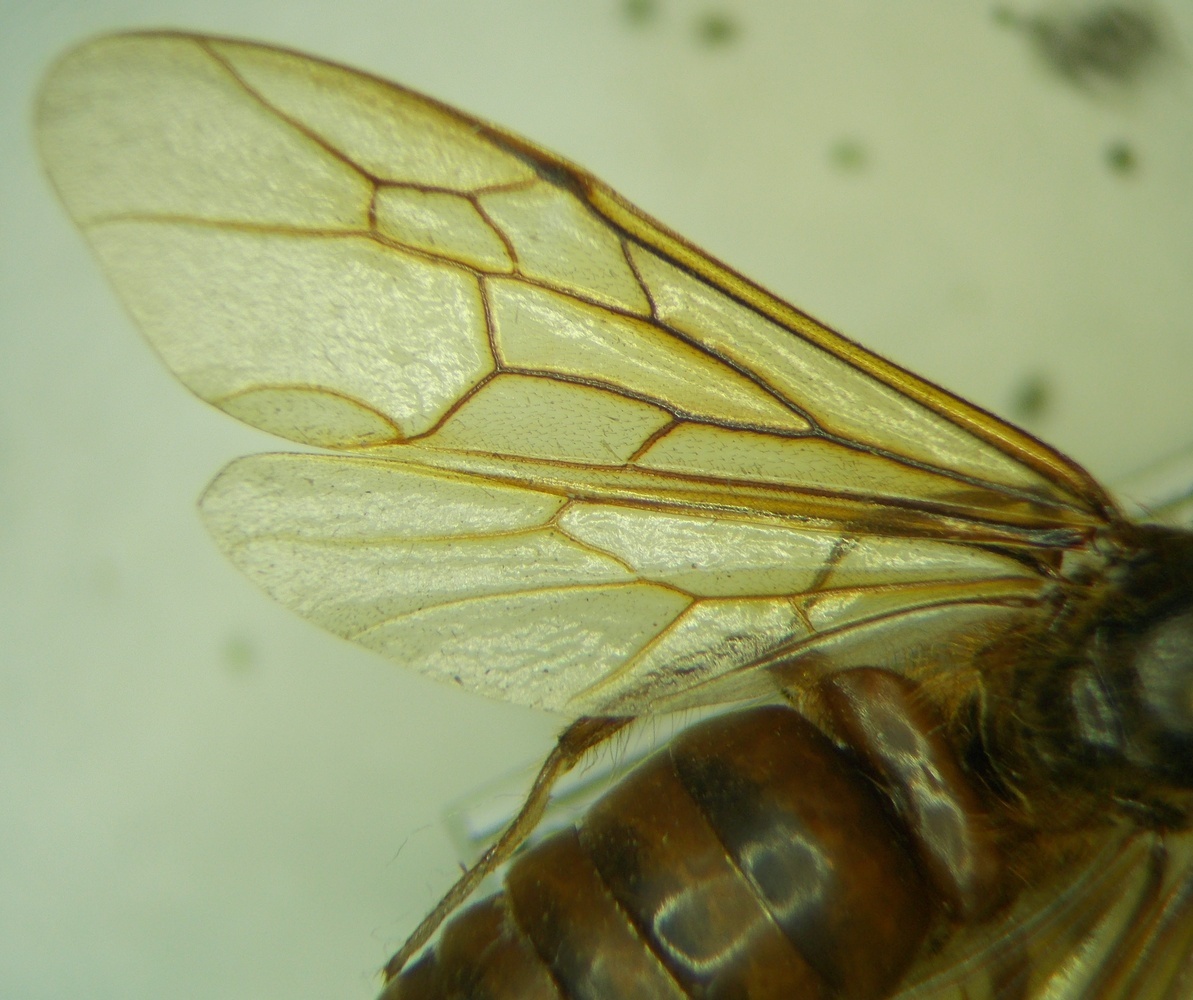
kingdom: Animalia
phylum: Arthropoda
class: Insecta
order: Hymenoptera
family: Formicidae
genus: Labidus
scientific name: Labidus praedator
